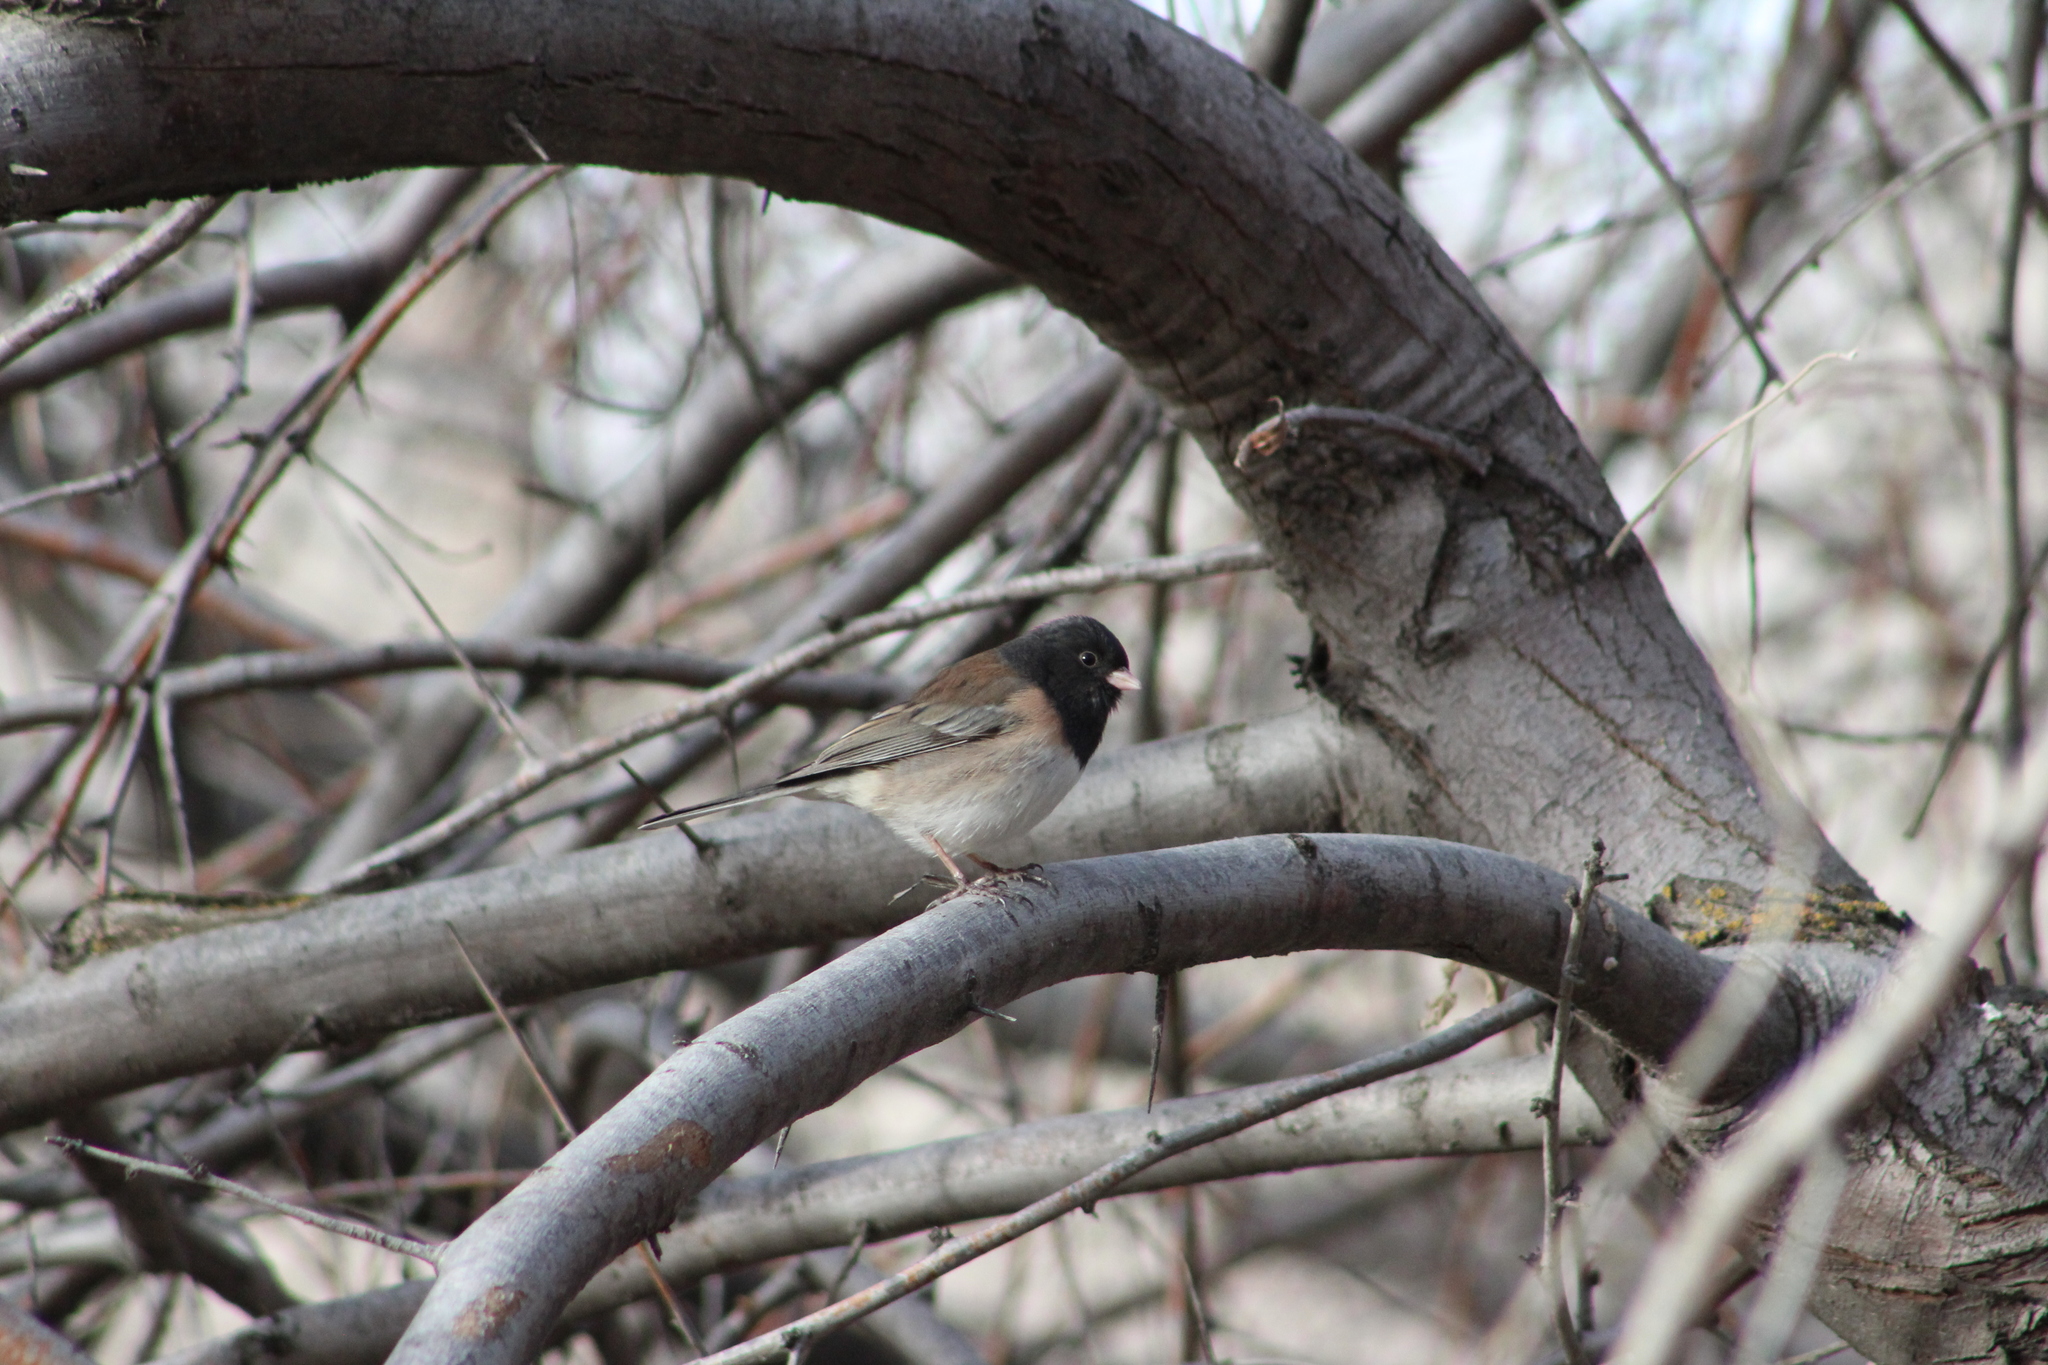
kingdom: Animalia
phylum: Chordata
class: Aves
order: Passeriformes
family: Passerellidae
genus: Junco
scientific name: Junco hyemalis
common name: Dark-eyed junco
